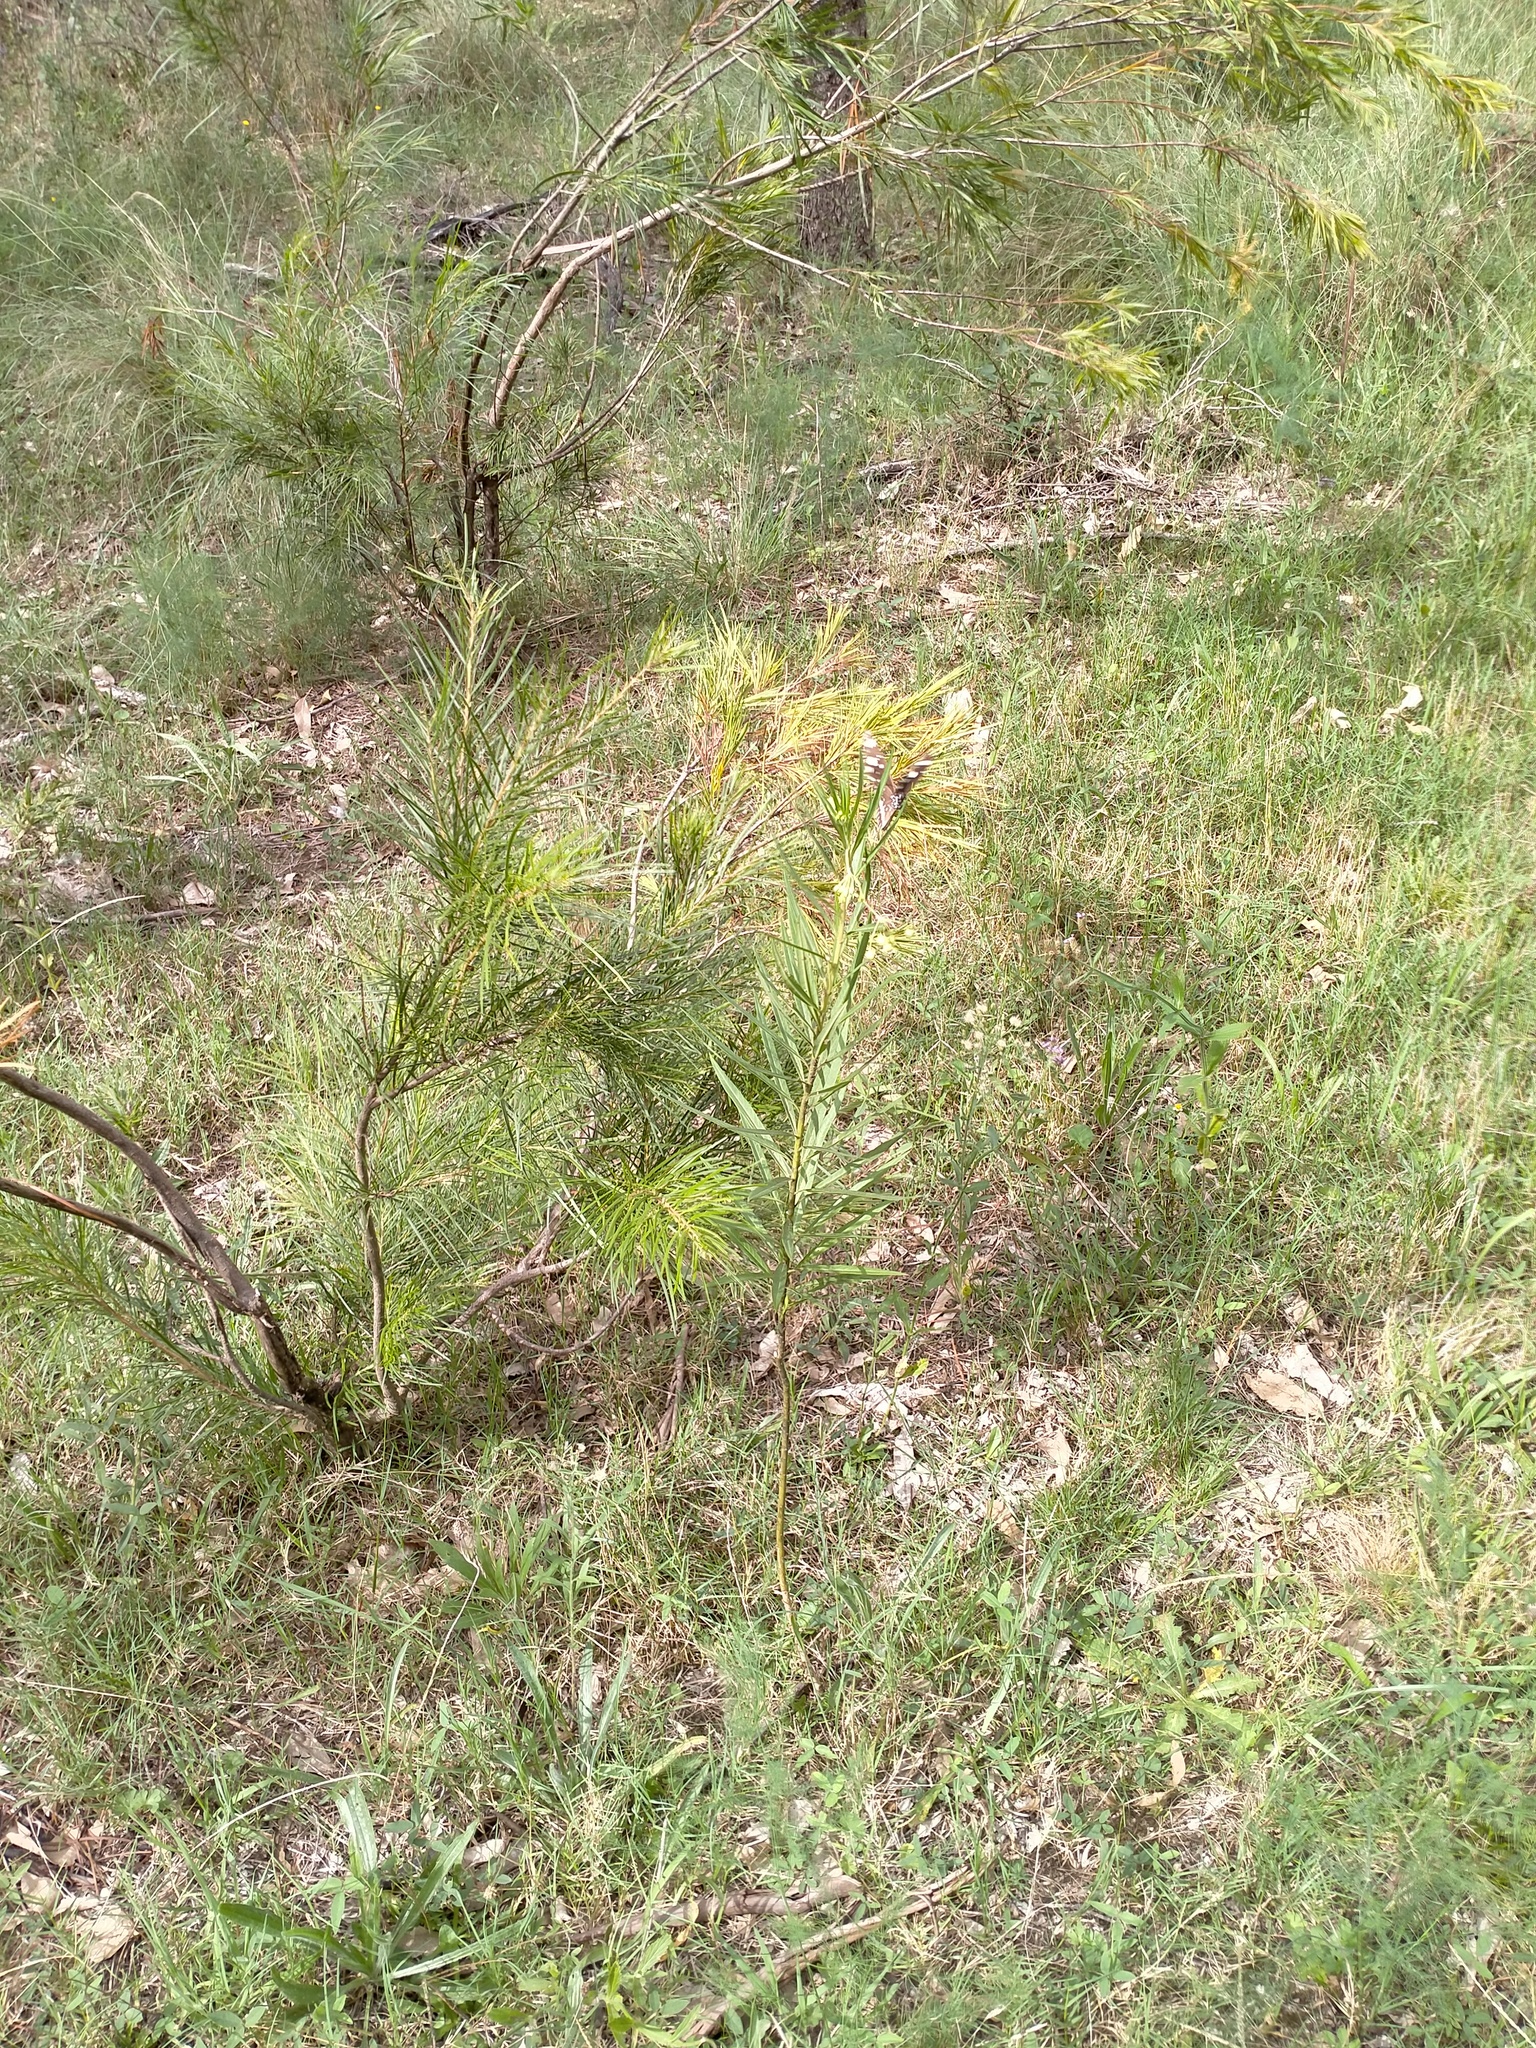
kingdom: Animalia
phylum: Arthropoda
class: Insecta
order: Lepidoptera
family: Nymphalidae
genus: Euploea
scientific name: Euploea core
